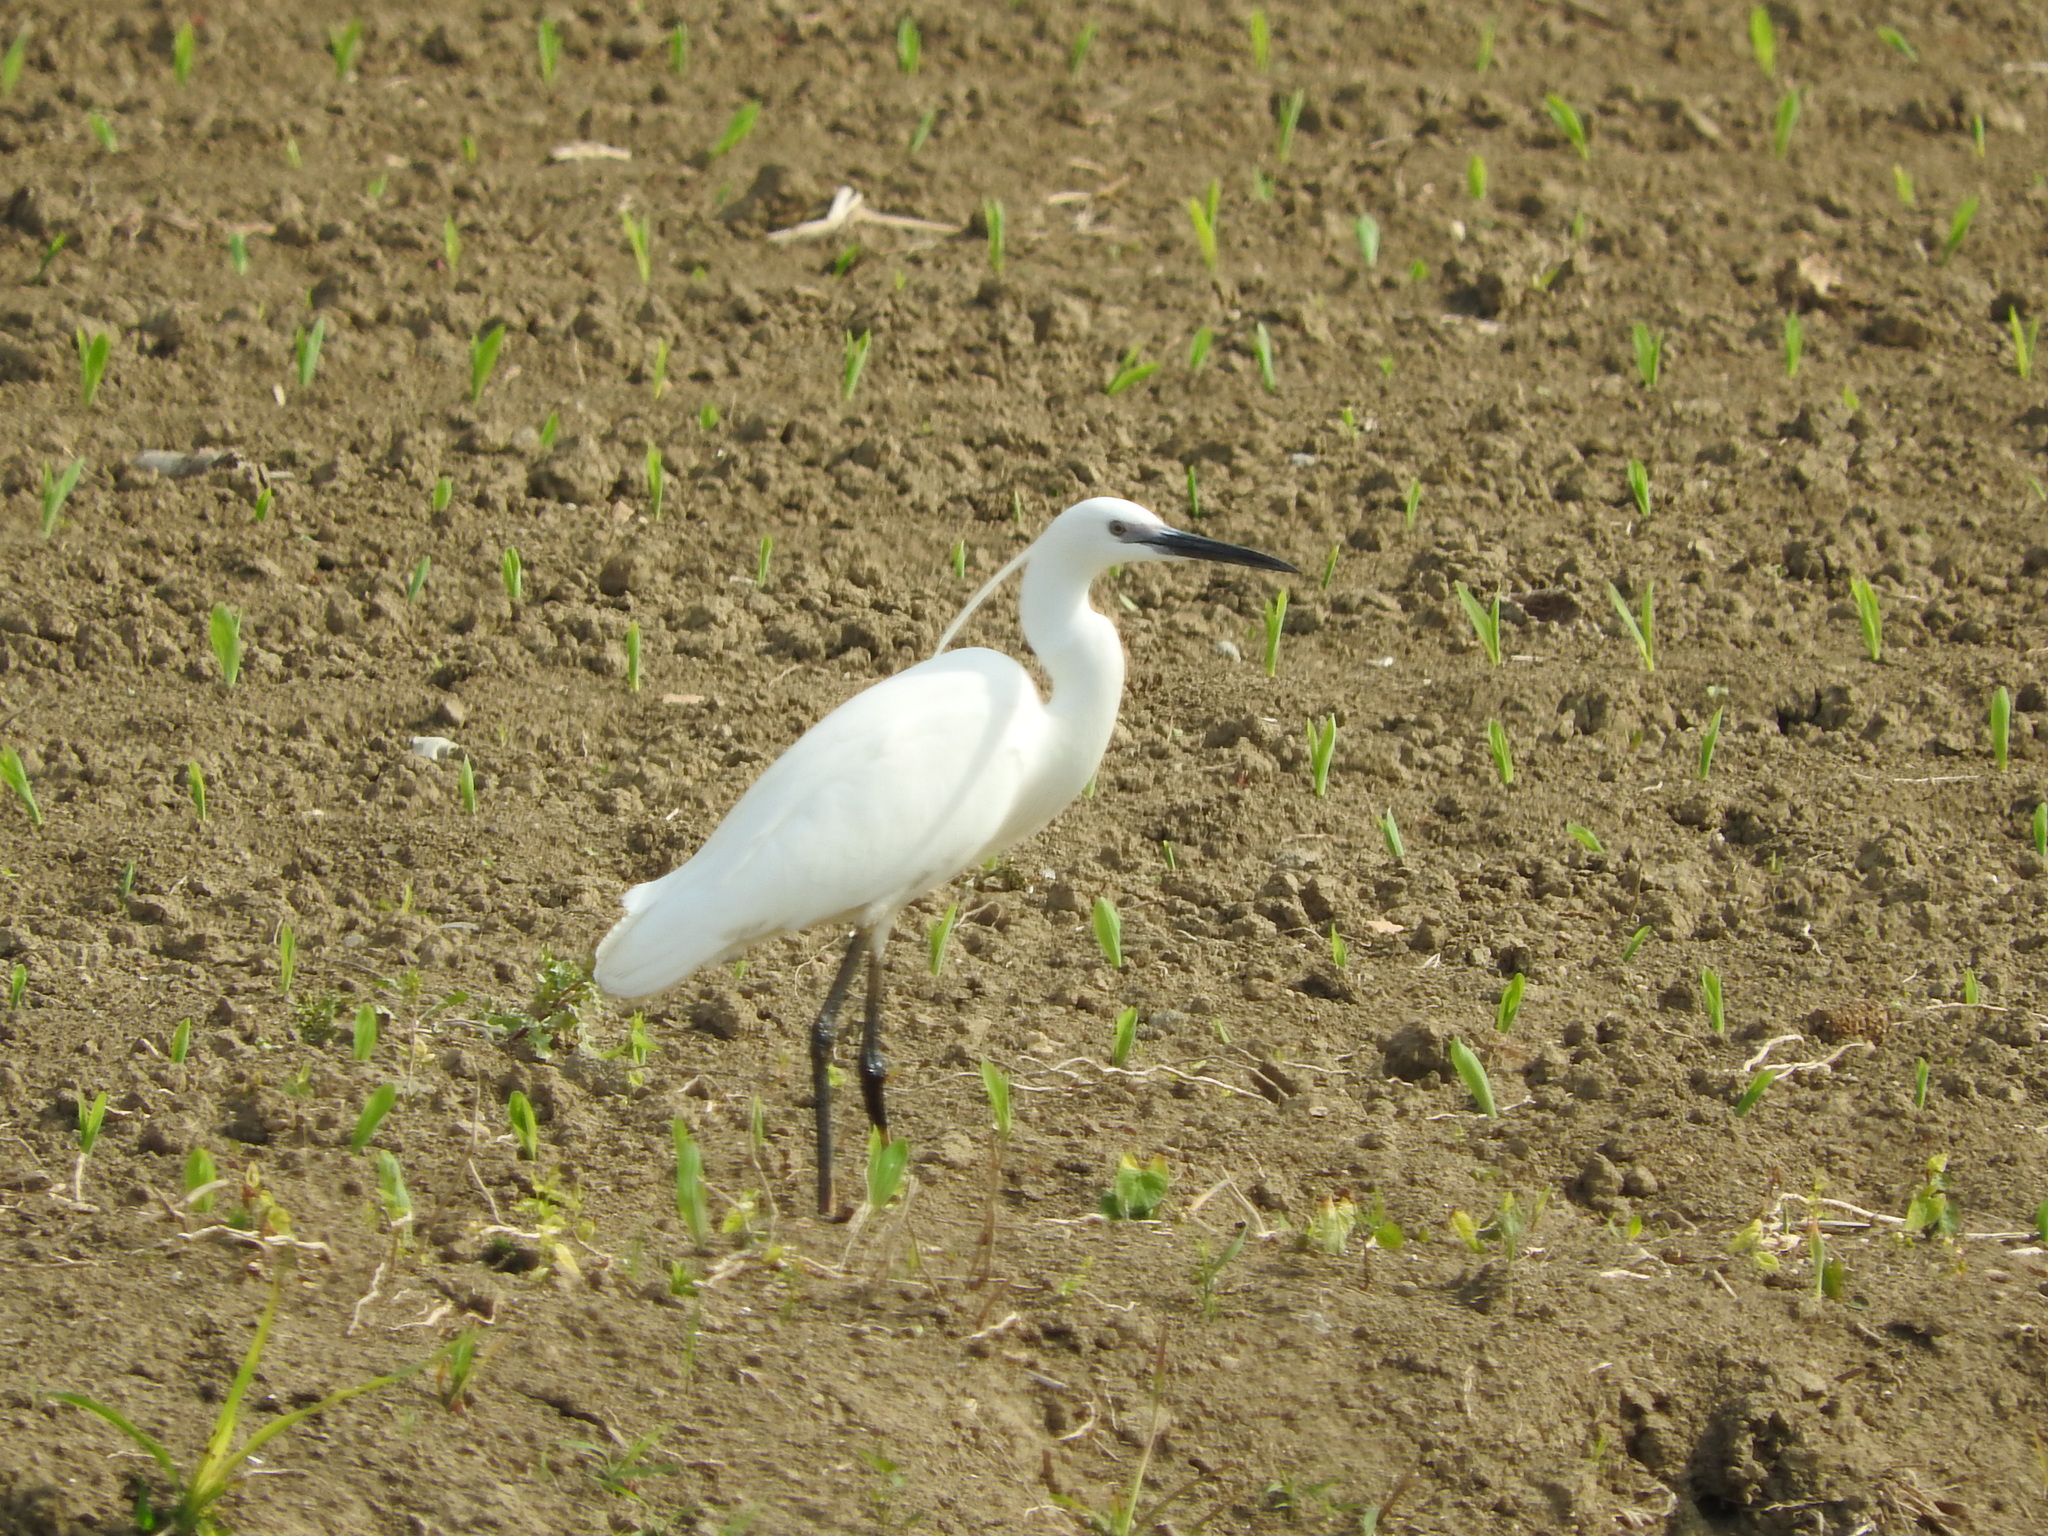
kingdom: Animalia
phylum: Chordata
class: Aves
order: Pelecaniformes
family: Ardeidae
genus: Egretta
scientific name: Egretta garzetta
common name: Little egret
